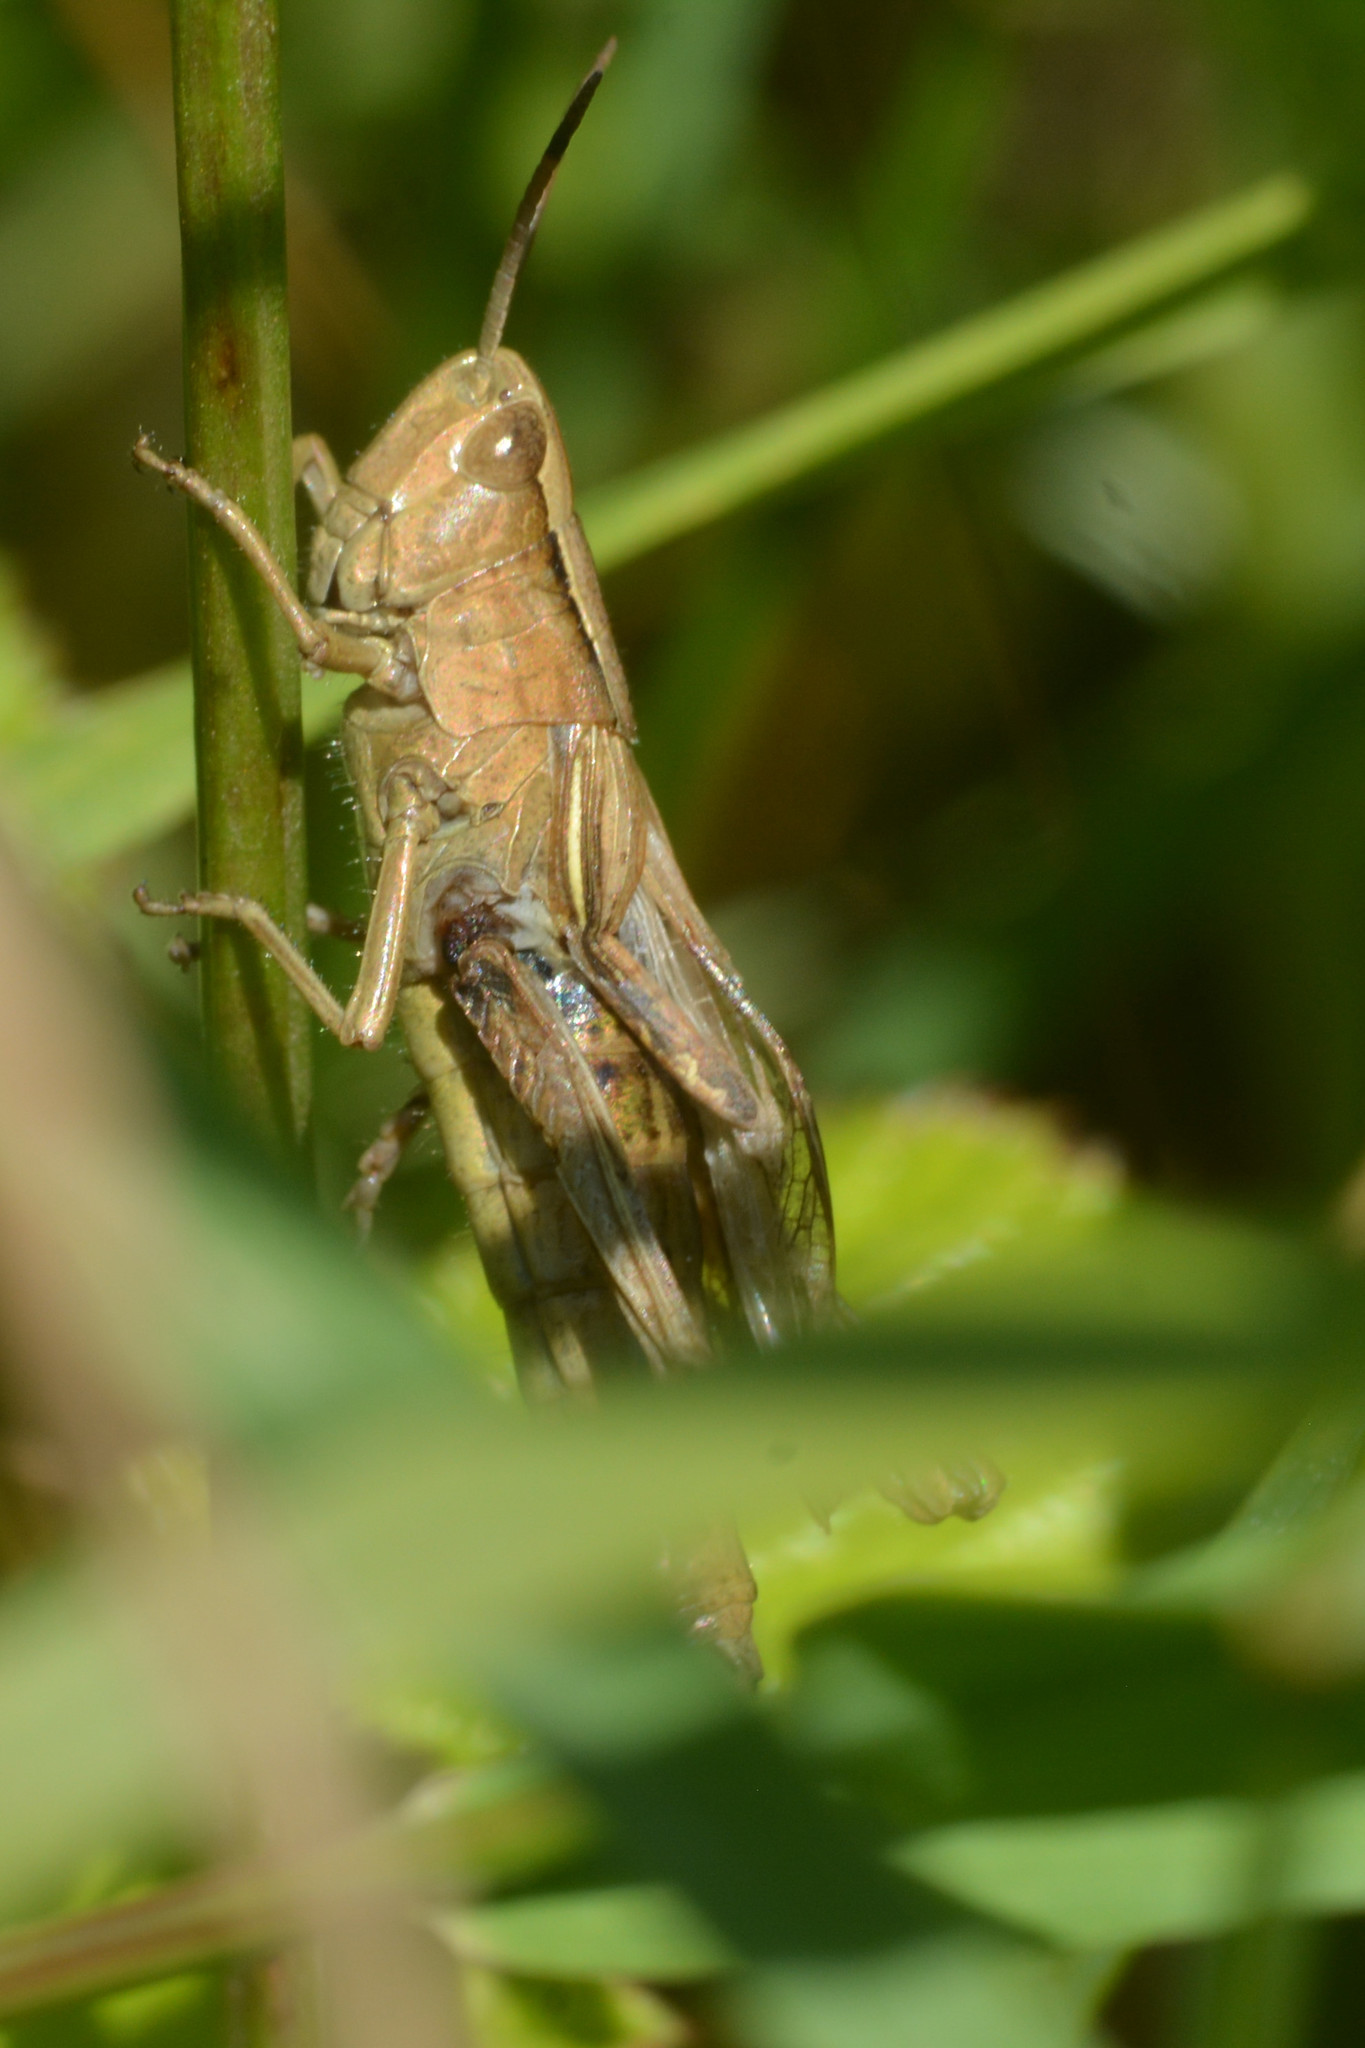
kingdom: Animalia
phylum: Arthropoda
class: Insecta
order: Orthoptera
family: Acrididae
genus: Chorthippus
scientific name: Chorthippus albomarginatus
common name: Lesser marsh grasshopper
